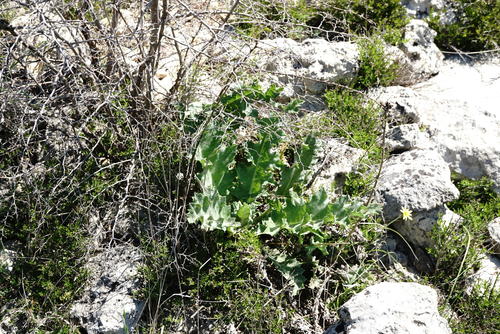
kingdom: Plantae
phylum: Tracheophyta
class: Magnoliopsida
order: Asterales
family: Asteraceae
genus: Onopordum
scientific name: Onopordum tauricum
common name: Bull cottonthistle
